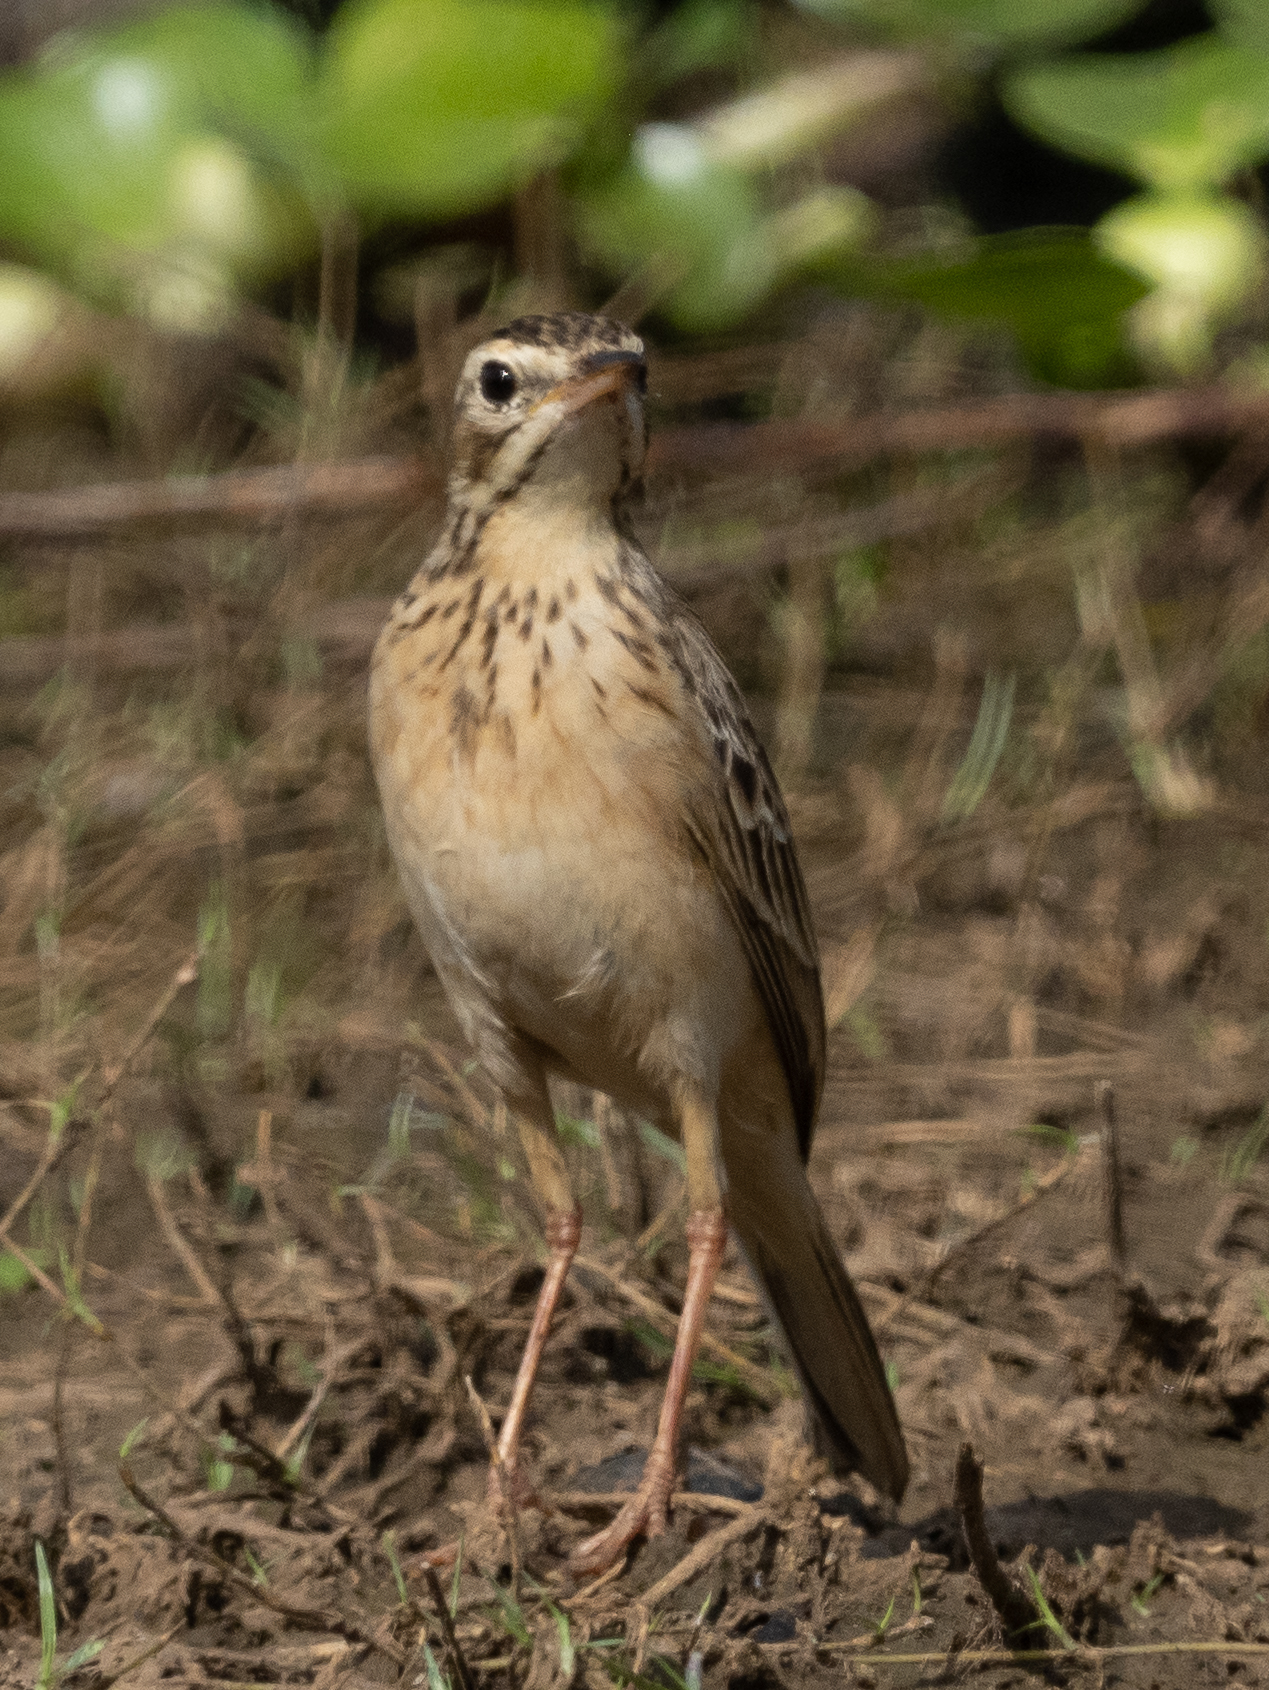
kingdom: Animalia
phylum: Chordata
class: Aves
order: Passeriformes
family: Motacillidae
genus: Anthus
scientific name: Anthus rufulus
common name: Paddyfield pipit
